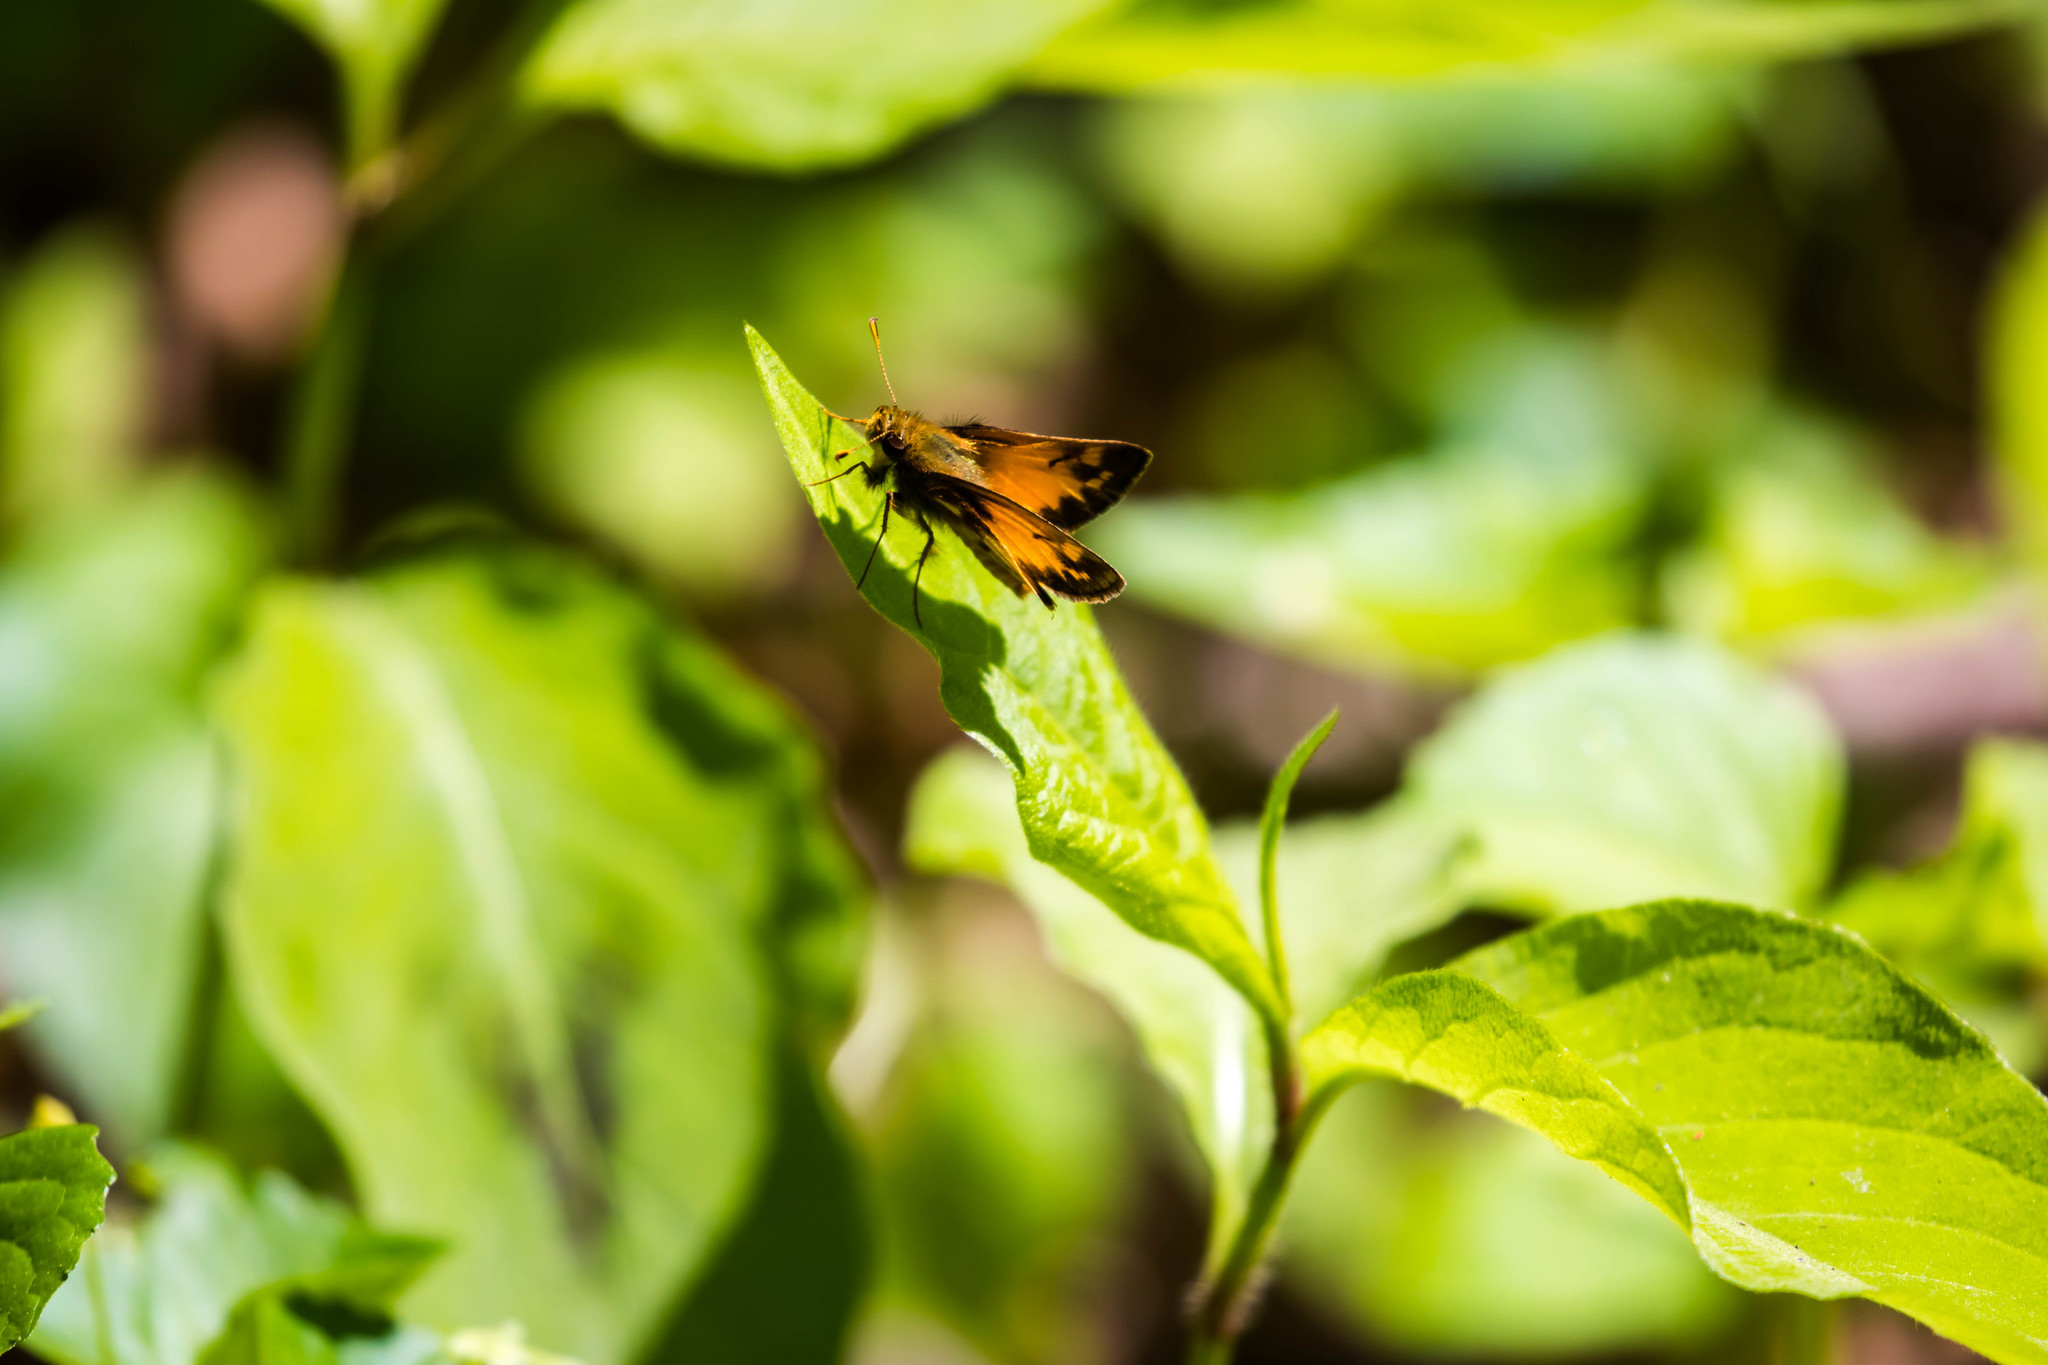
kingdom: Animalia
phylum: Arthropoda
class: Insecta
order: Lepidoptera
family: Hesperiidae
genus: Lon
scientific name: Lon zabulon
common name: Zabulon skipper
